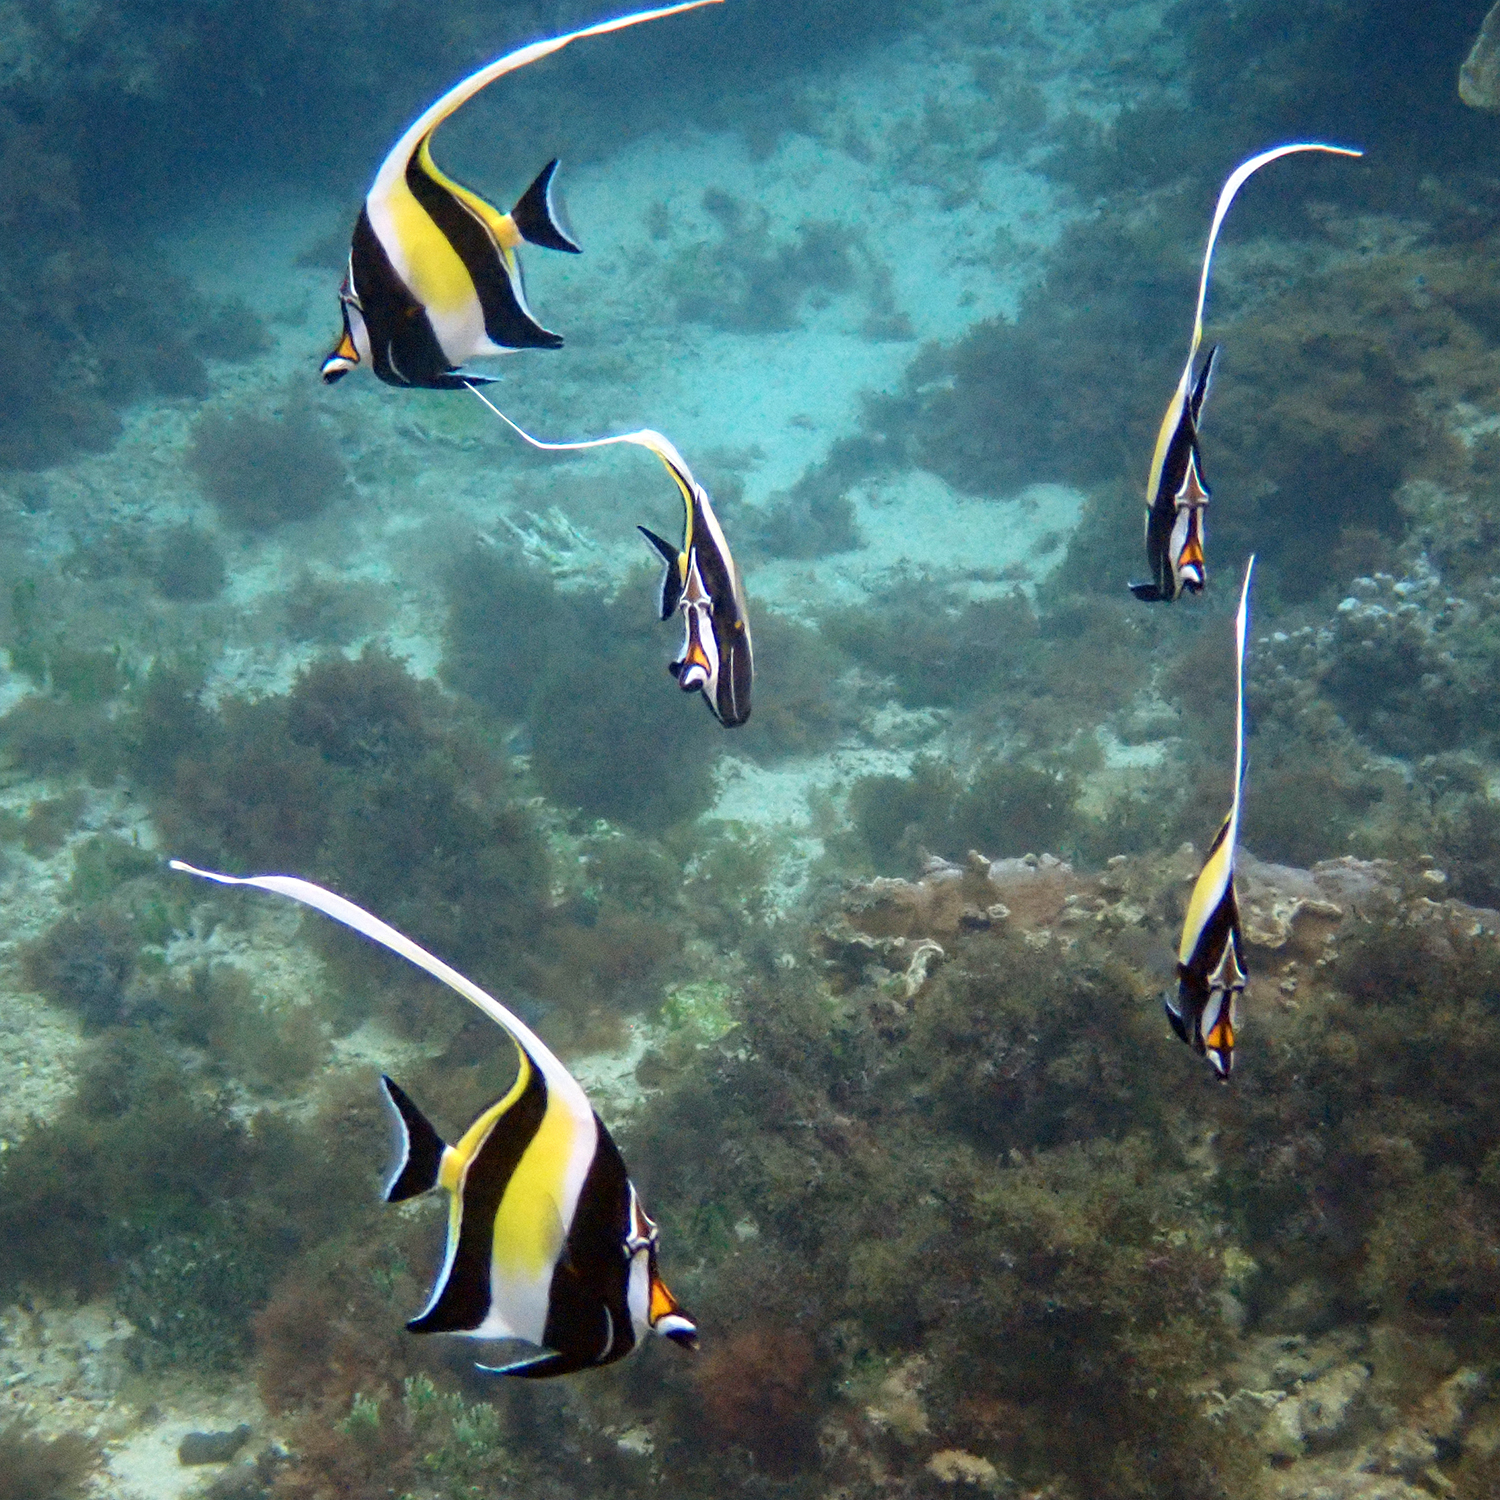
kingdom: Animalia
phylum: Chordata
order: Perciformes
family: Zanclidae
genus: Zanclus
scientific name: Zanclus cornutus
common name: Moorish idol
